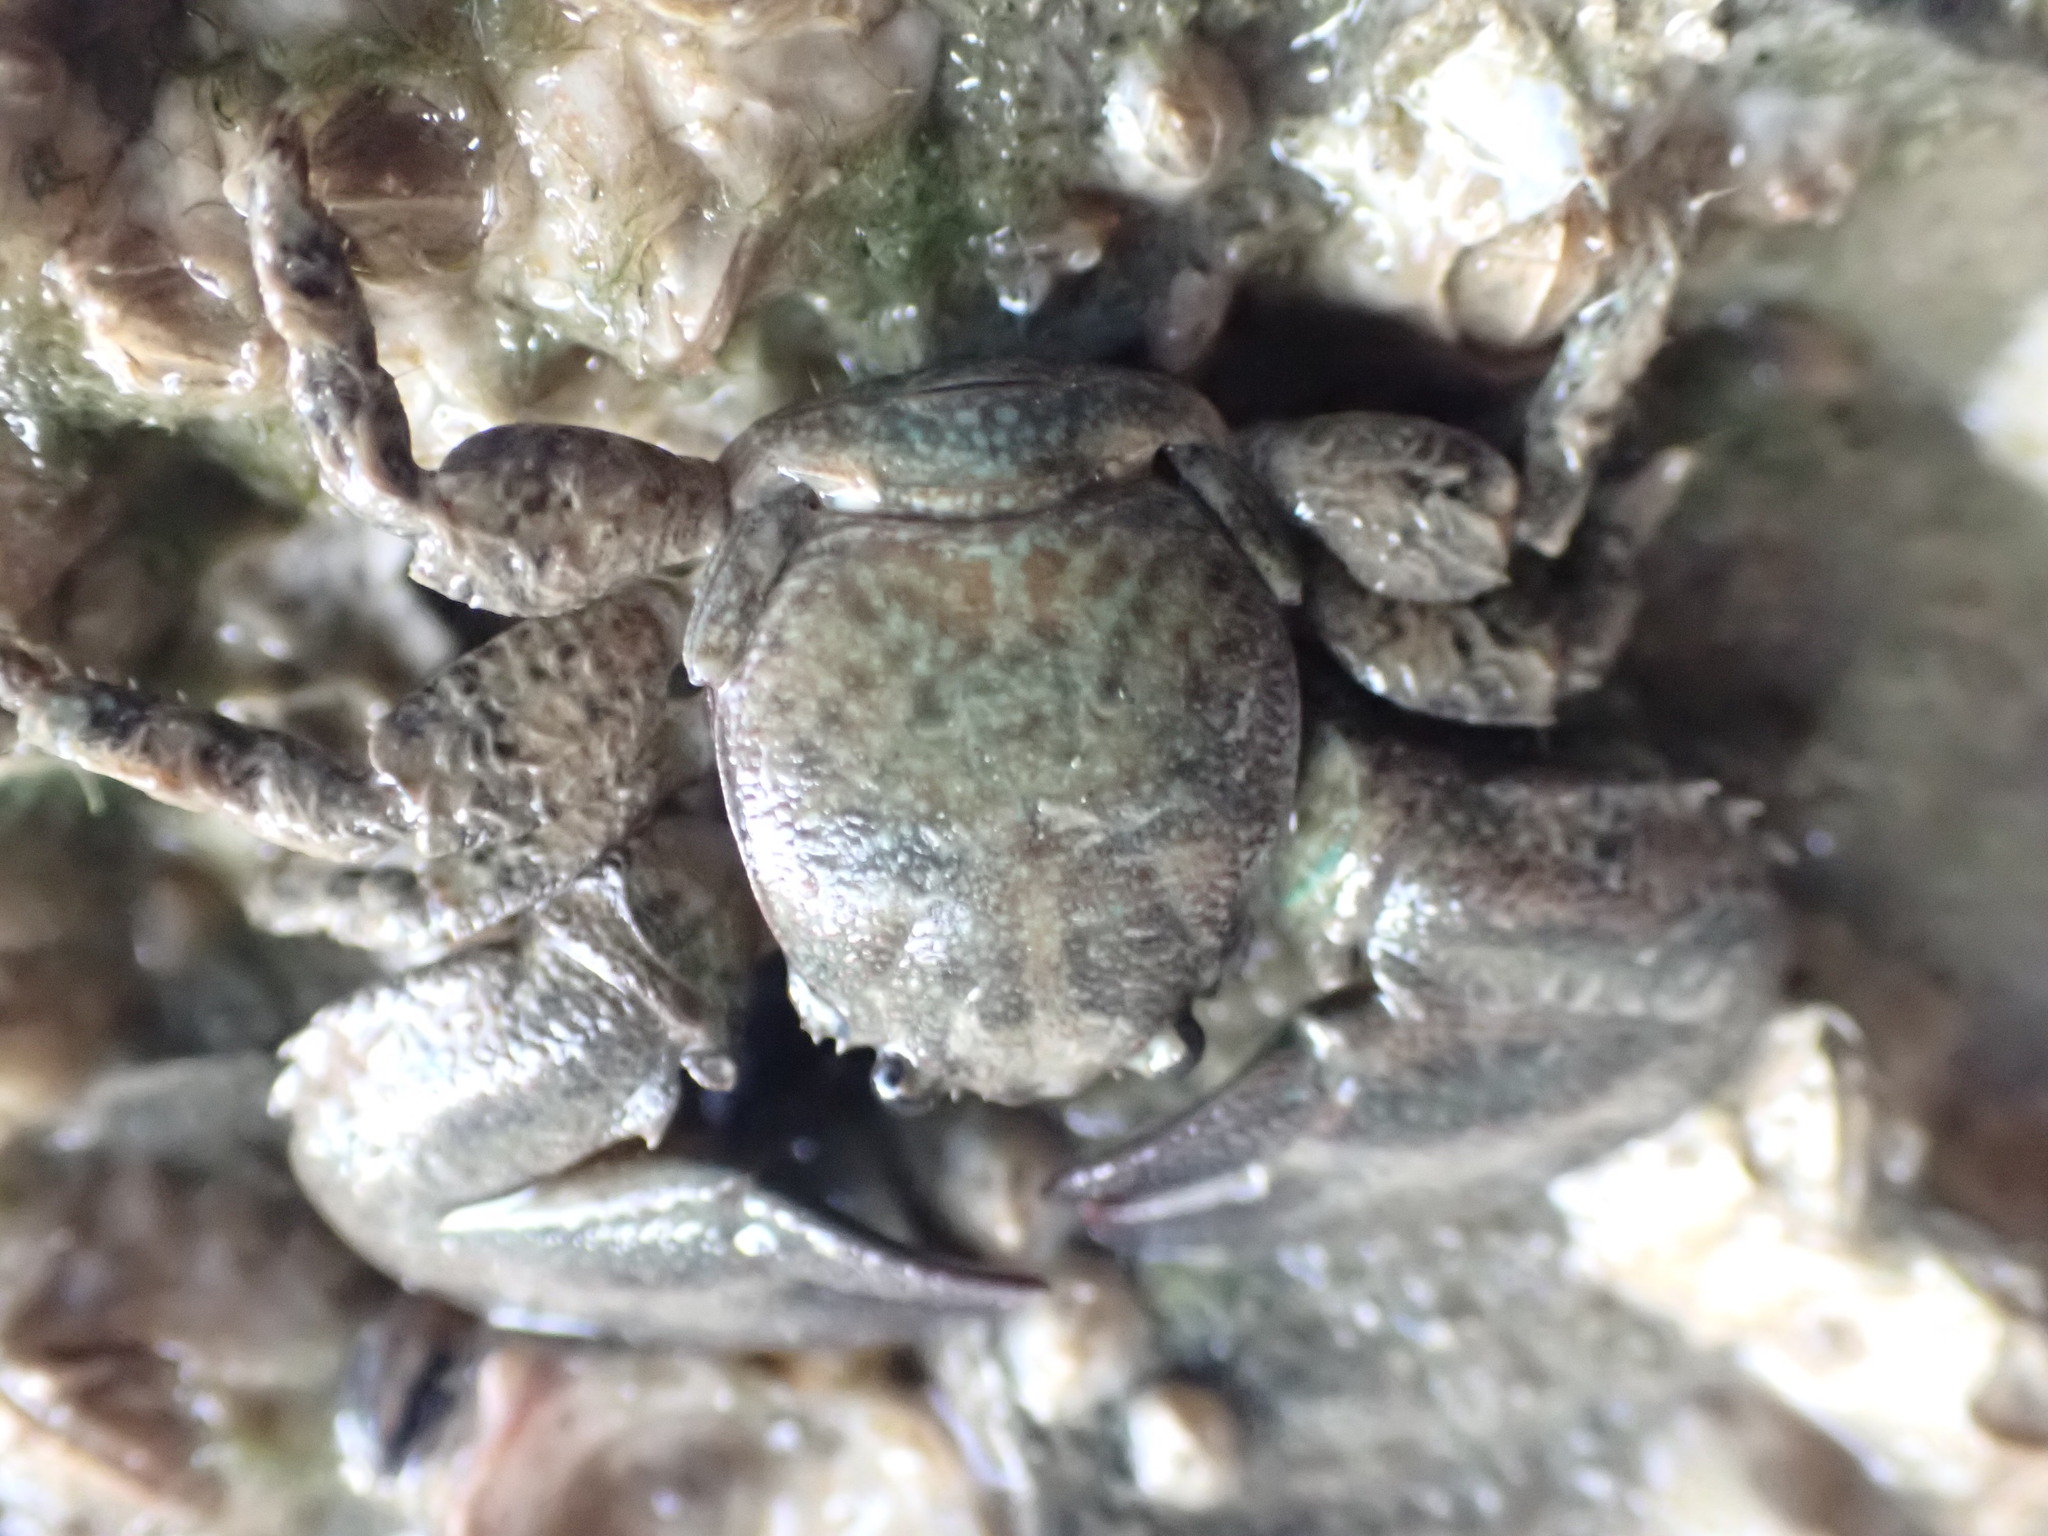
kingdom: Animalia
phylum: Arthropoda
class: Malacostraca
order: Decapoda
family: Porcellanidae
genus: Petrolisthes
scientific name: Petrolisthes elongatus
